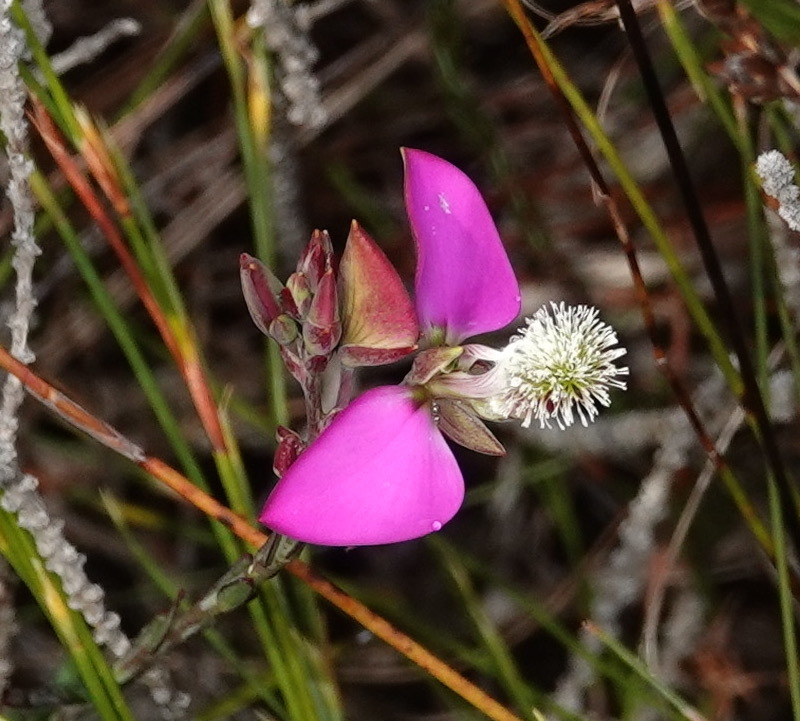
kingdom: Plantae
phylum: Tracheophyta
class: Magnoliopsida
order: Fabales
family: Polygalaceae
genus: Polygala
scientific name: Polygala bracteolata
